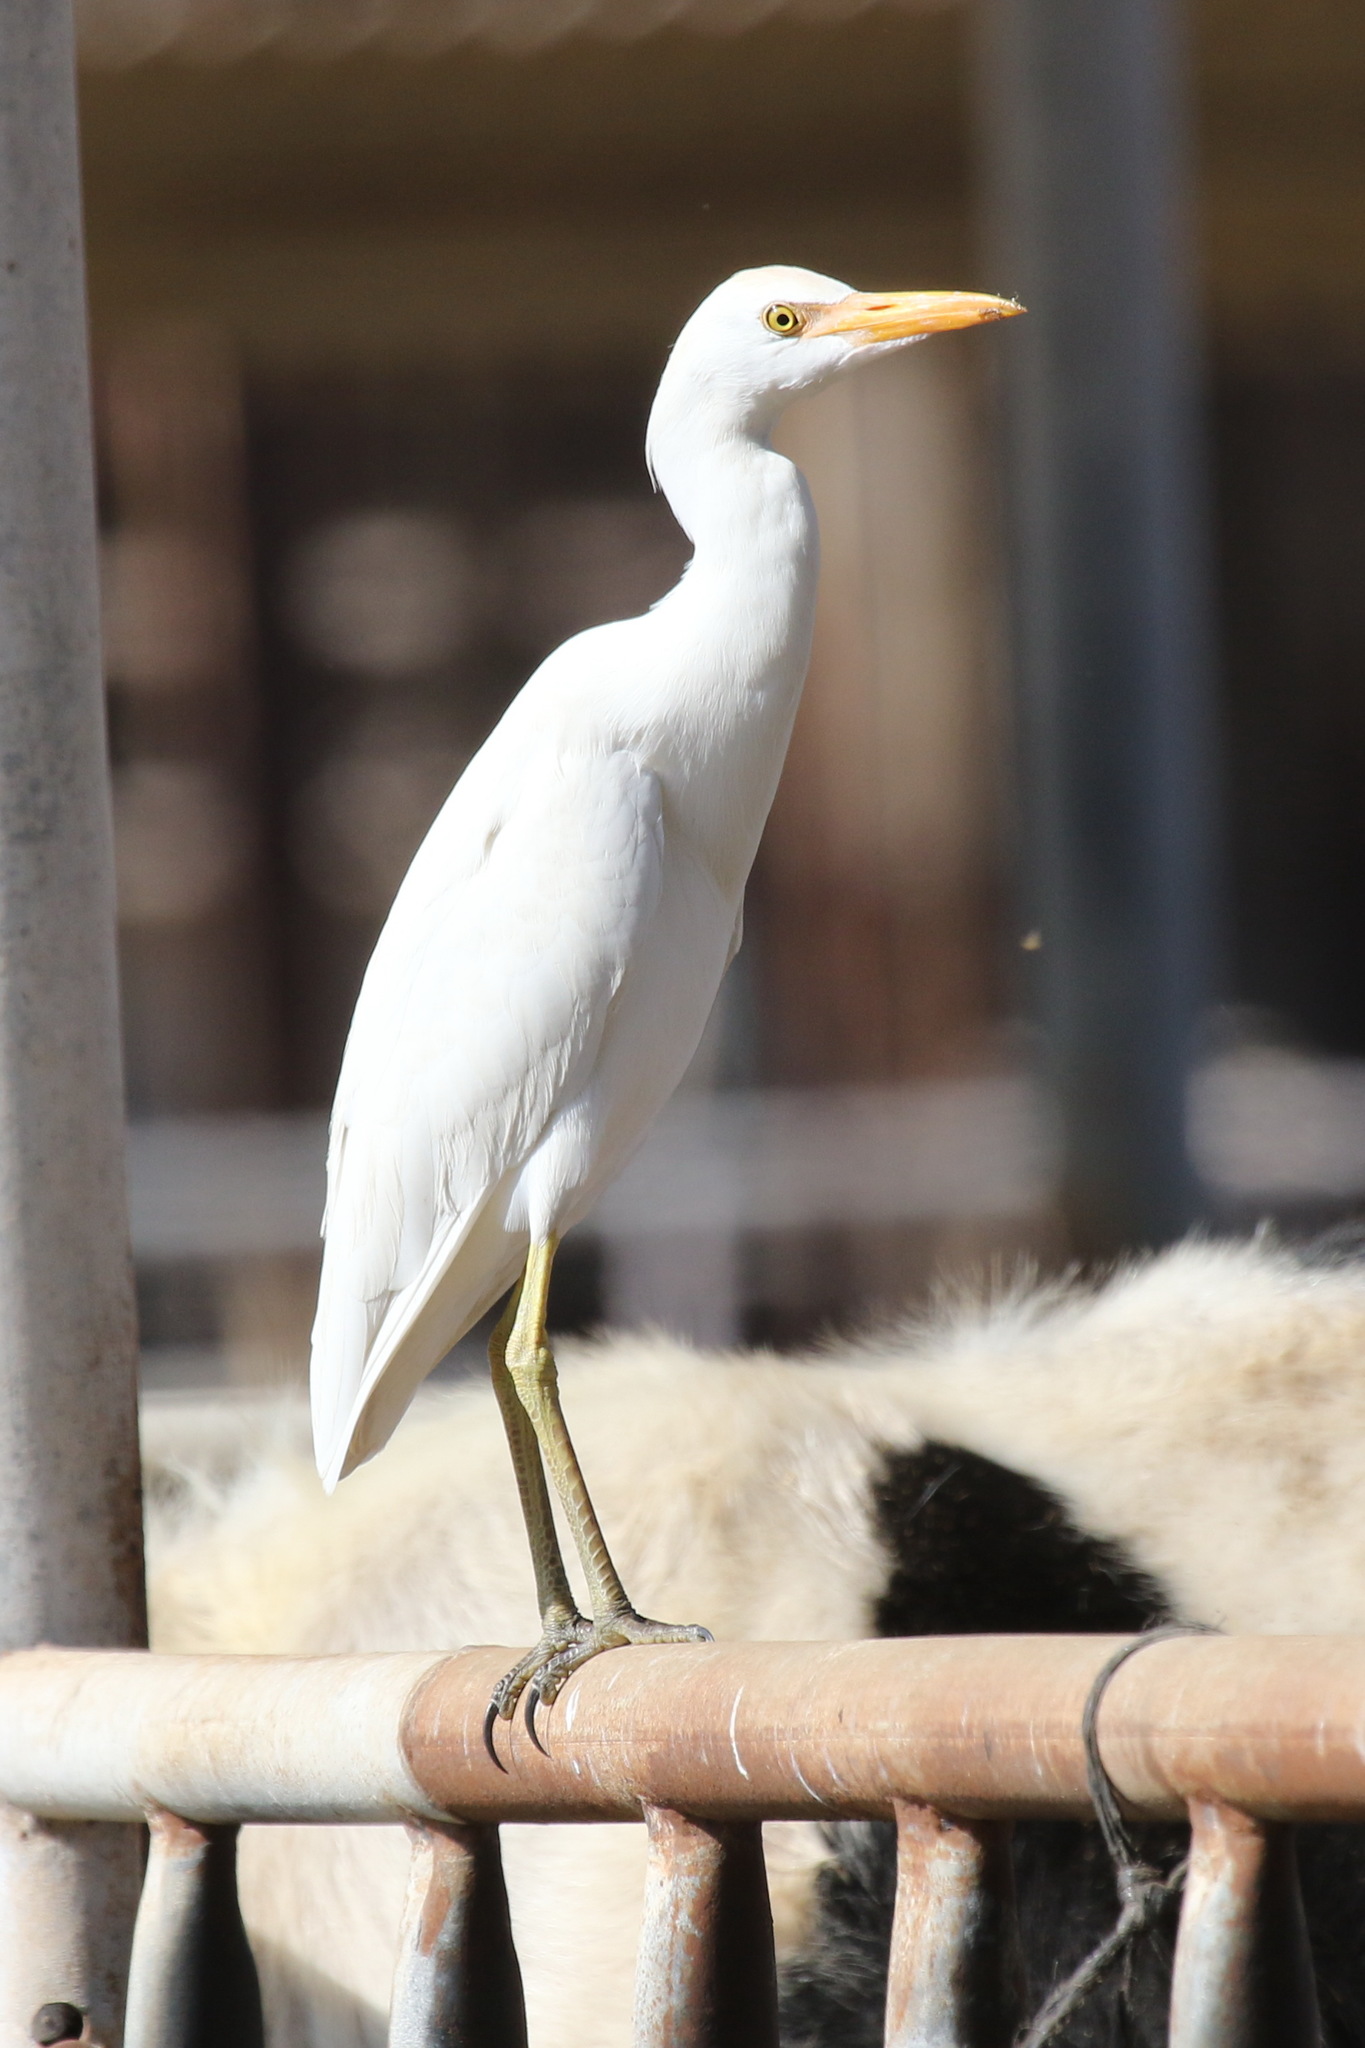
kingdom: Animalia
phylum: Chordata
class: Aves
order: Pelecaniformes
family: Ardeidae
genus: Bubulcus
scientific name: Bubulcus ibis
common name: Cattle egret
